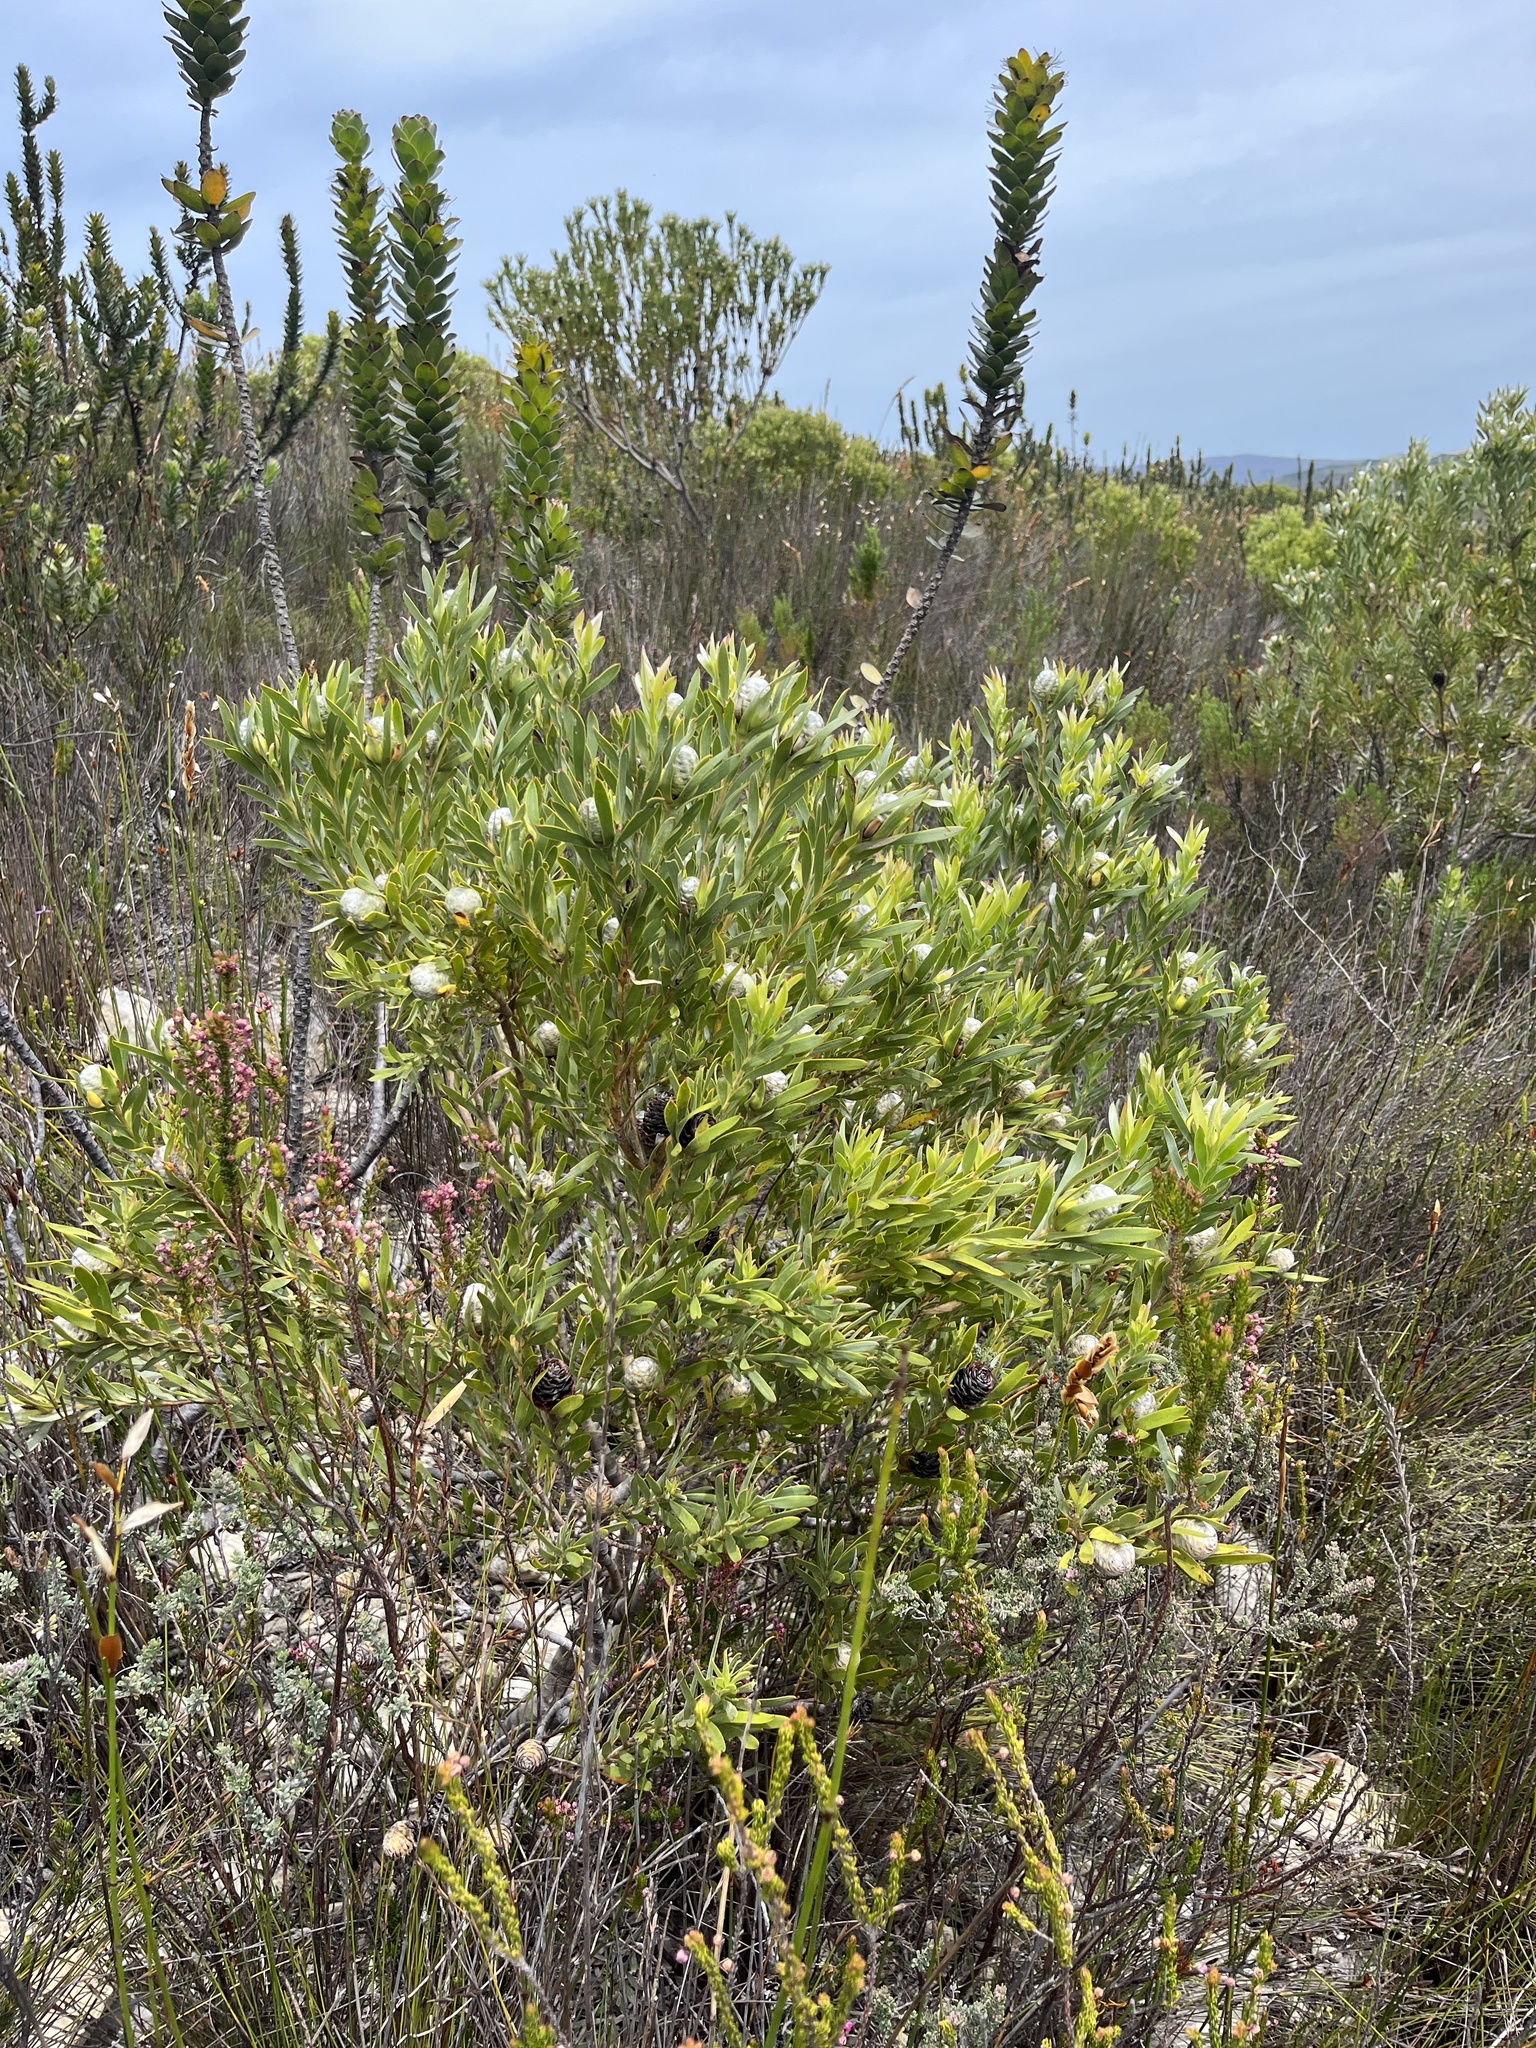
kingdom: Plantae
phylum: Tracheophyta
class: Magnoliopsida
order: Proteales
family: Proteaceae
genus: Leucadendron
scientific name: Leucadendron meridianum
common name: Limestone conebush
